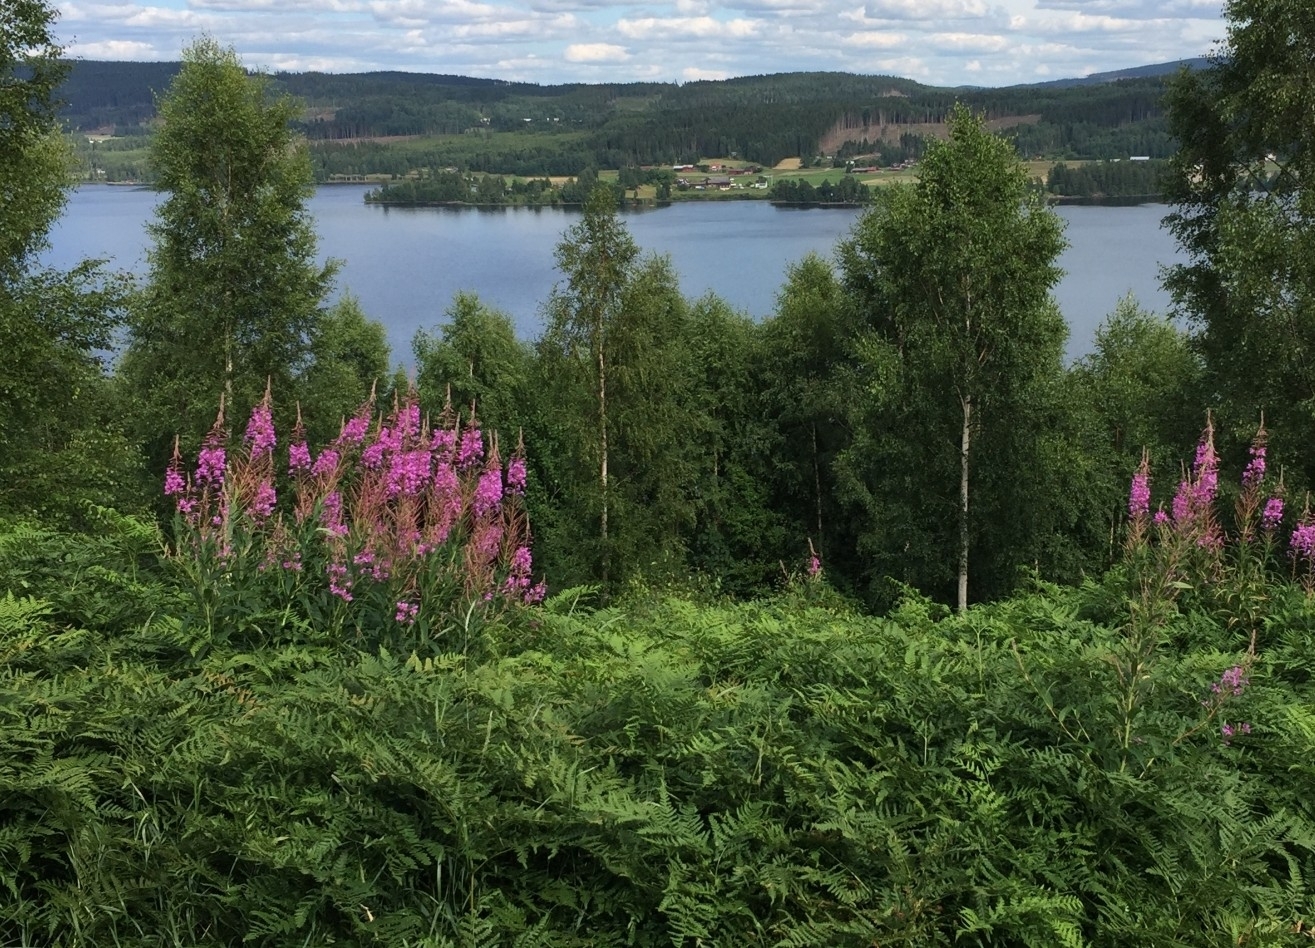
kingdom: Plantae
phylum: Tracheophyta
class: Magnoliopsida
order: Myrtales
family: Onagraceae
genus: Chamaenerion
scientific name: Chamaenerion angustifolium
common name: Fireweed
